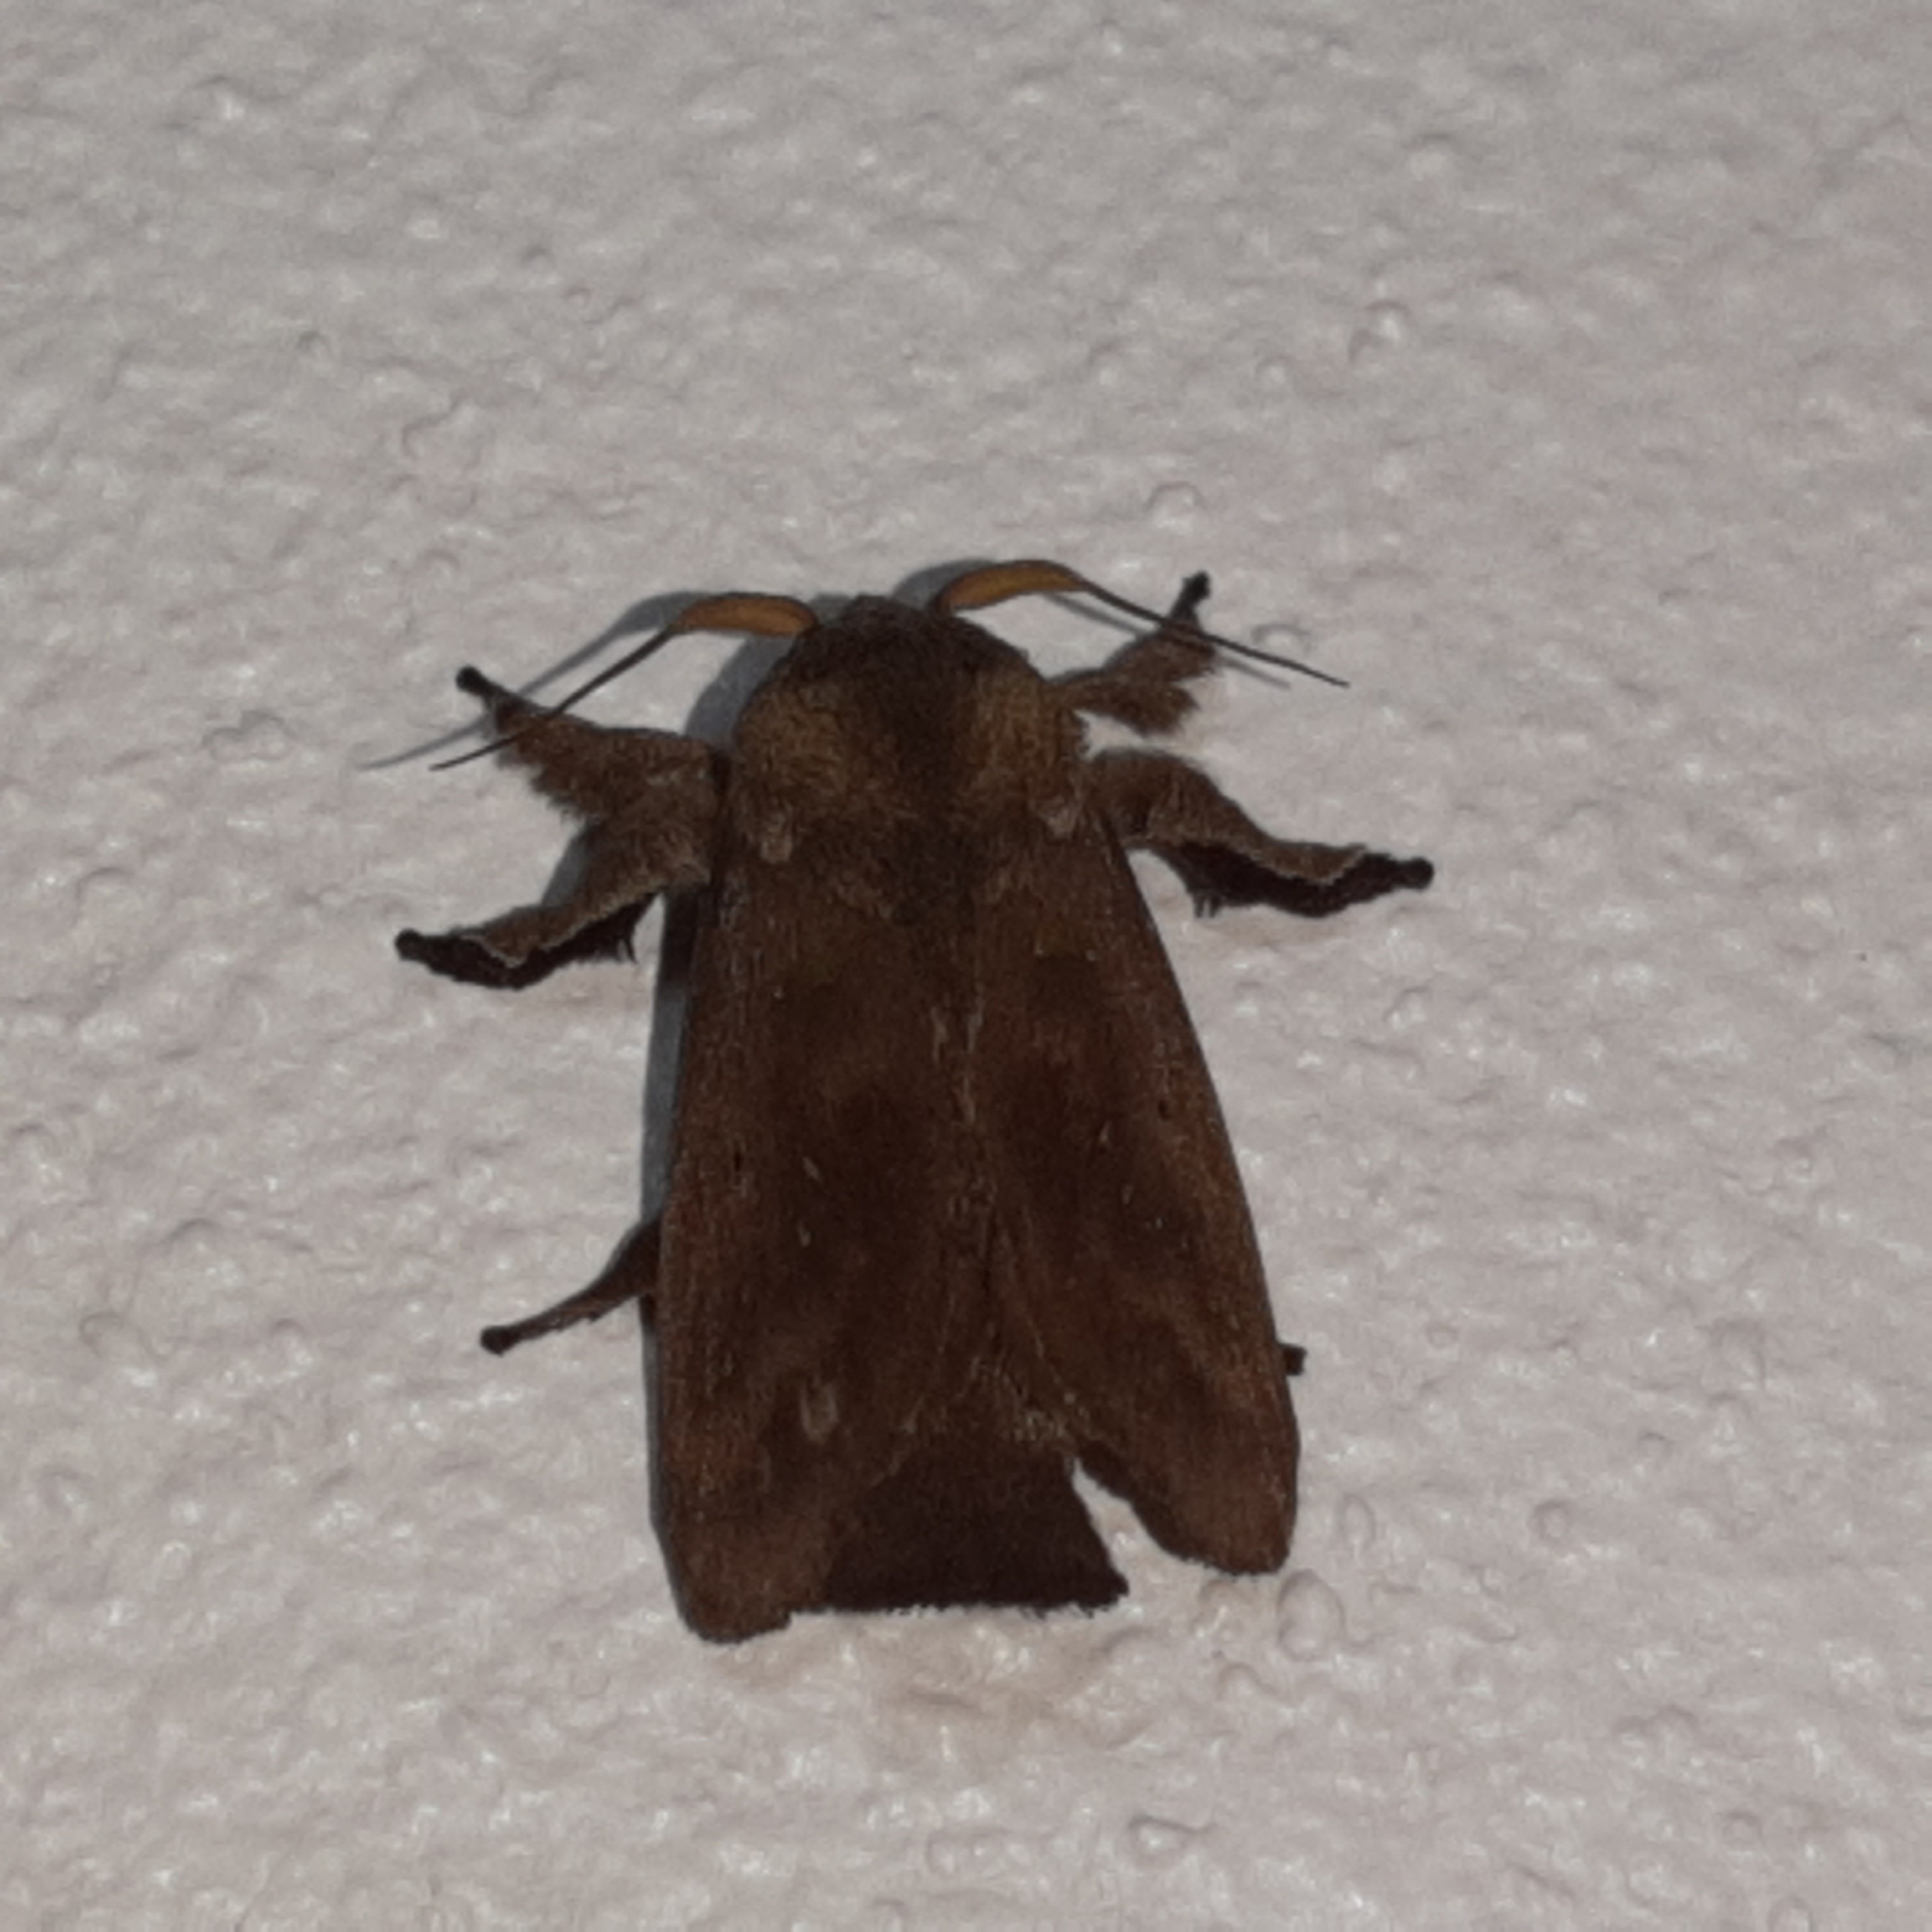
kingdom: Animalia
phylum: Arthropoda
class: Insecta
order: Lepidoptera
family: Limacodidae
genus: Euclea
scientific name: Euclea norba
